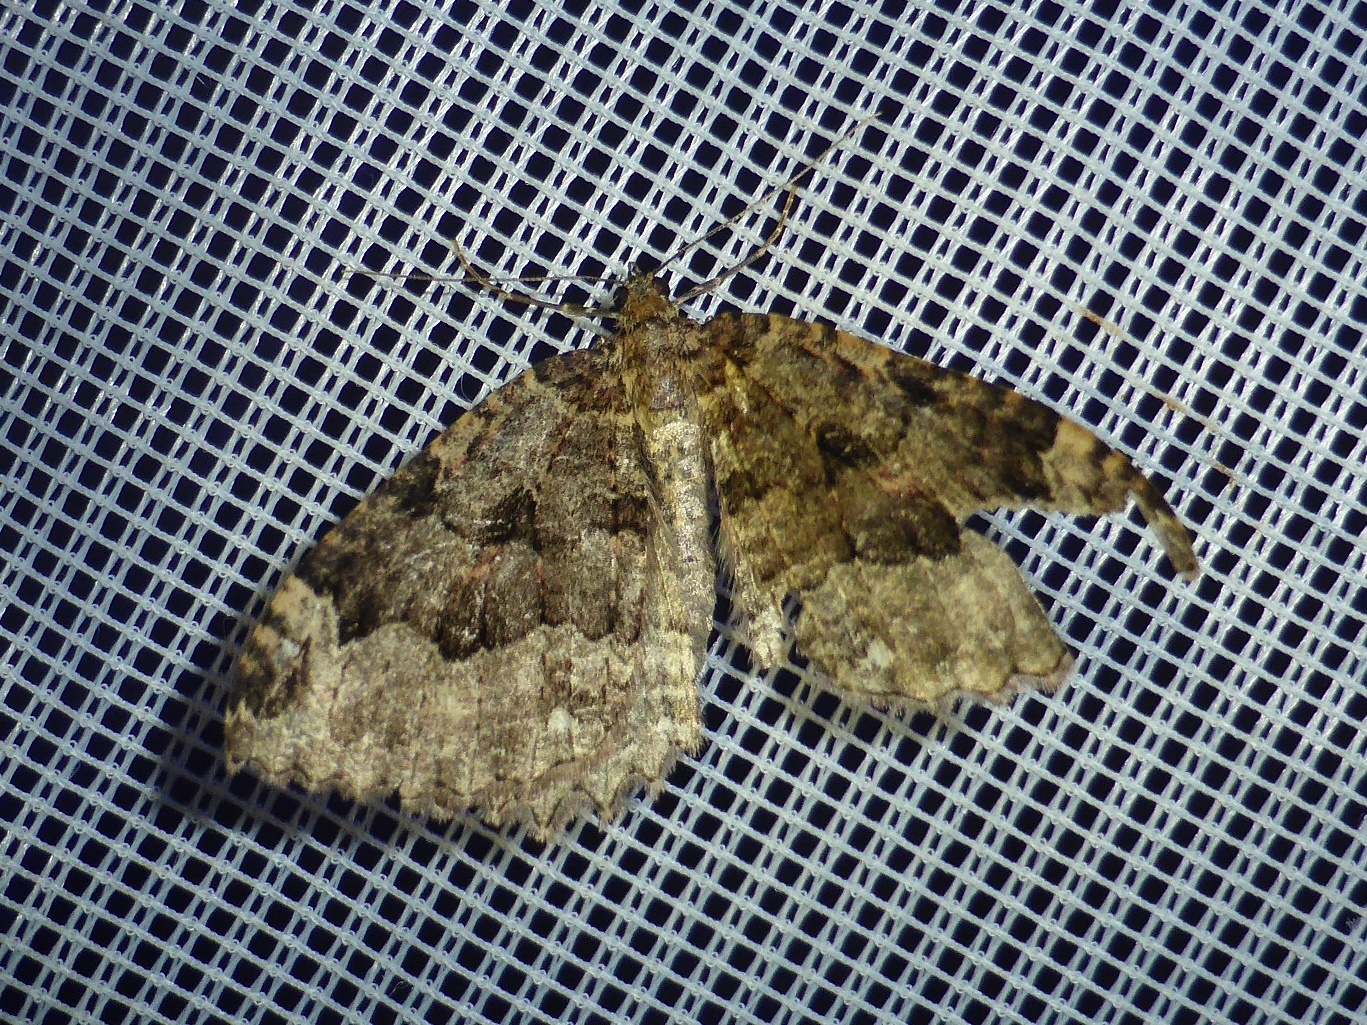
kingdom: Animalia
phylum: Arthropoda
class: Insecta
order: Lepidoptera
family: Geometridae
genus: Triphosa
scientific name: Triphosa dubitata
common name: Tissue
